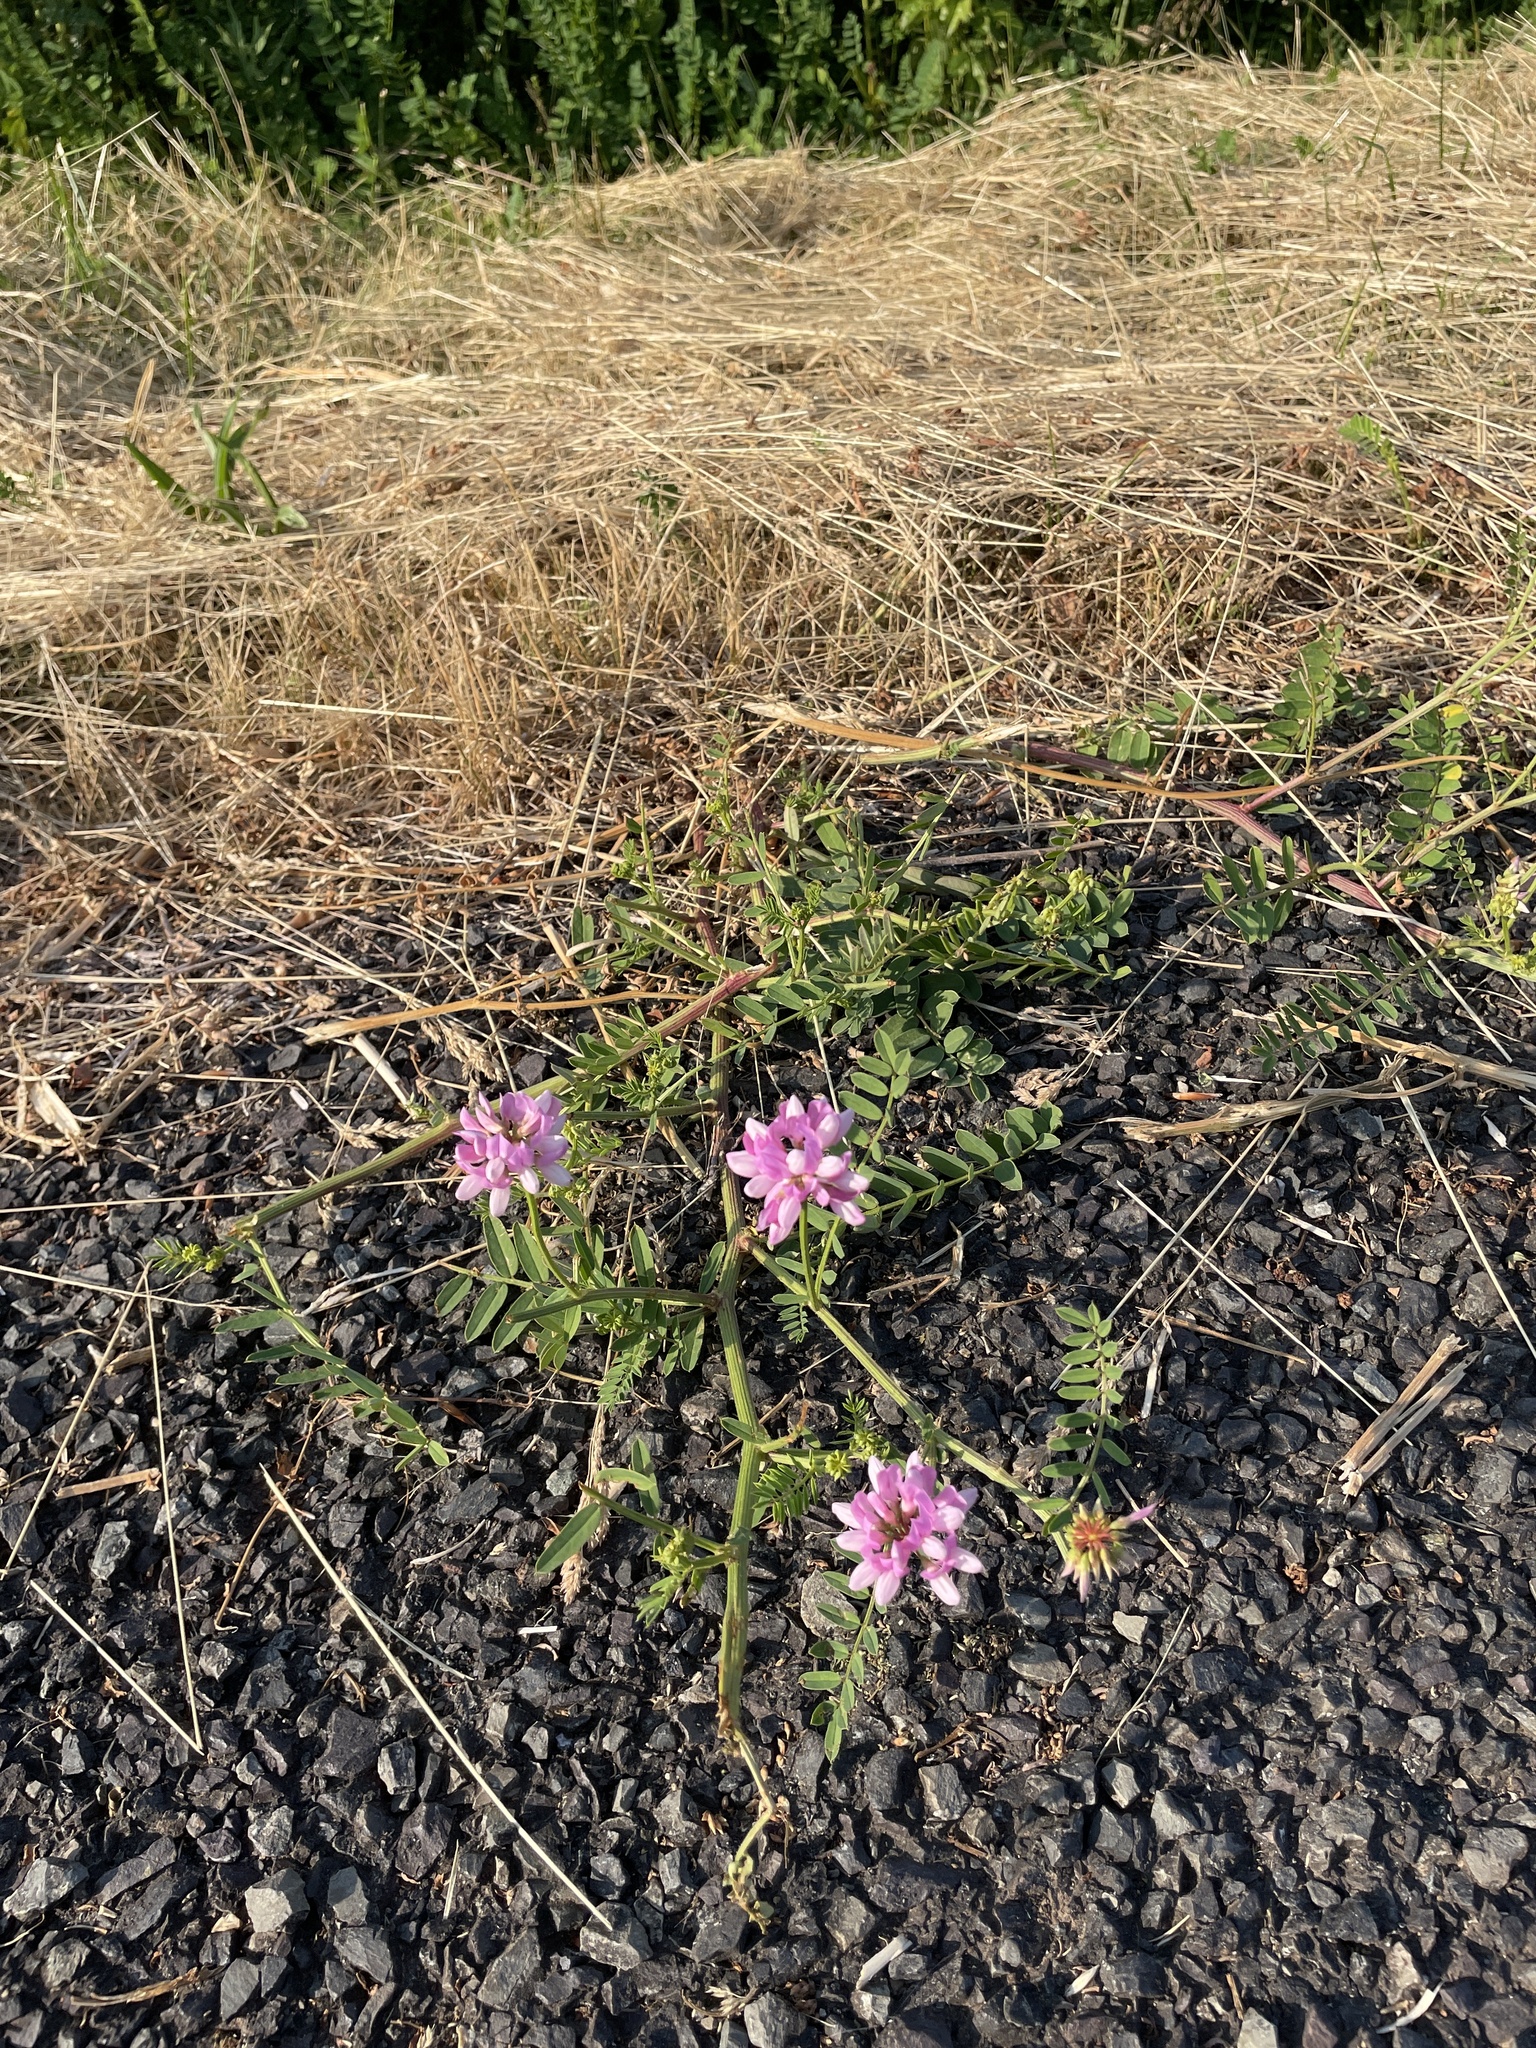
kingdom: Plantae
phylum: Tracheophyta
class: Magnoliopsida
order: Fabales
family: Fabaceae
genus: Coronilla
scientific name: Coronilla varia
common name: Crownvetch
